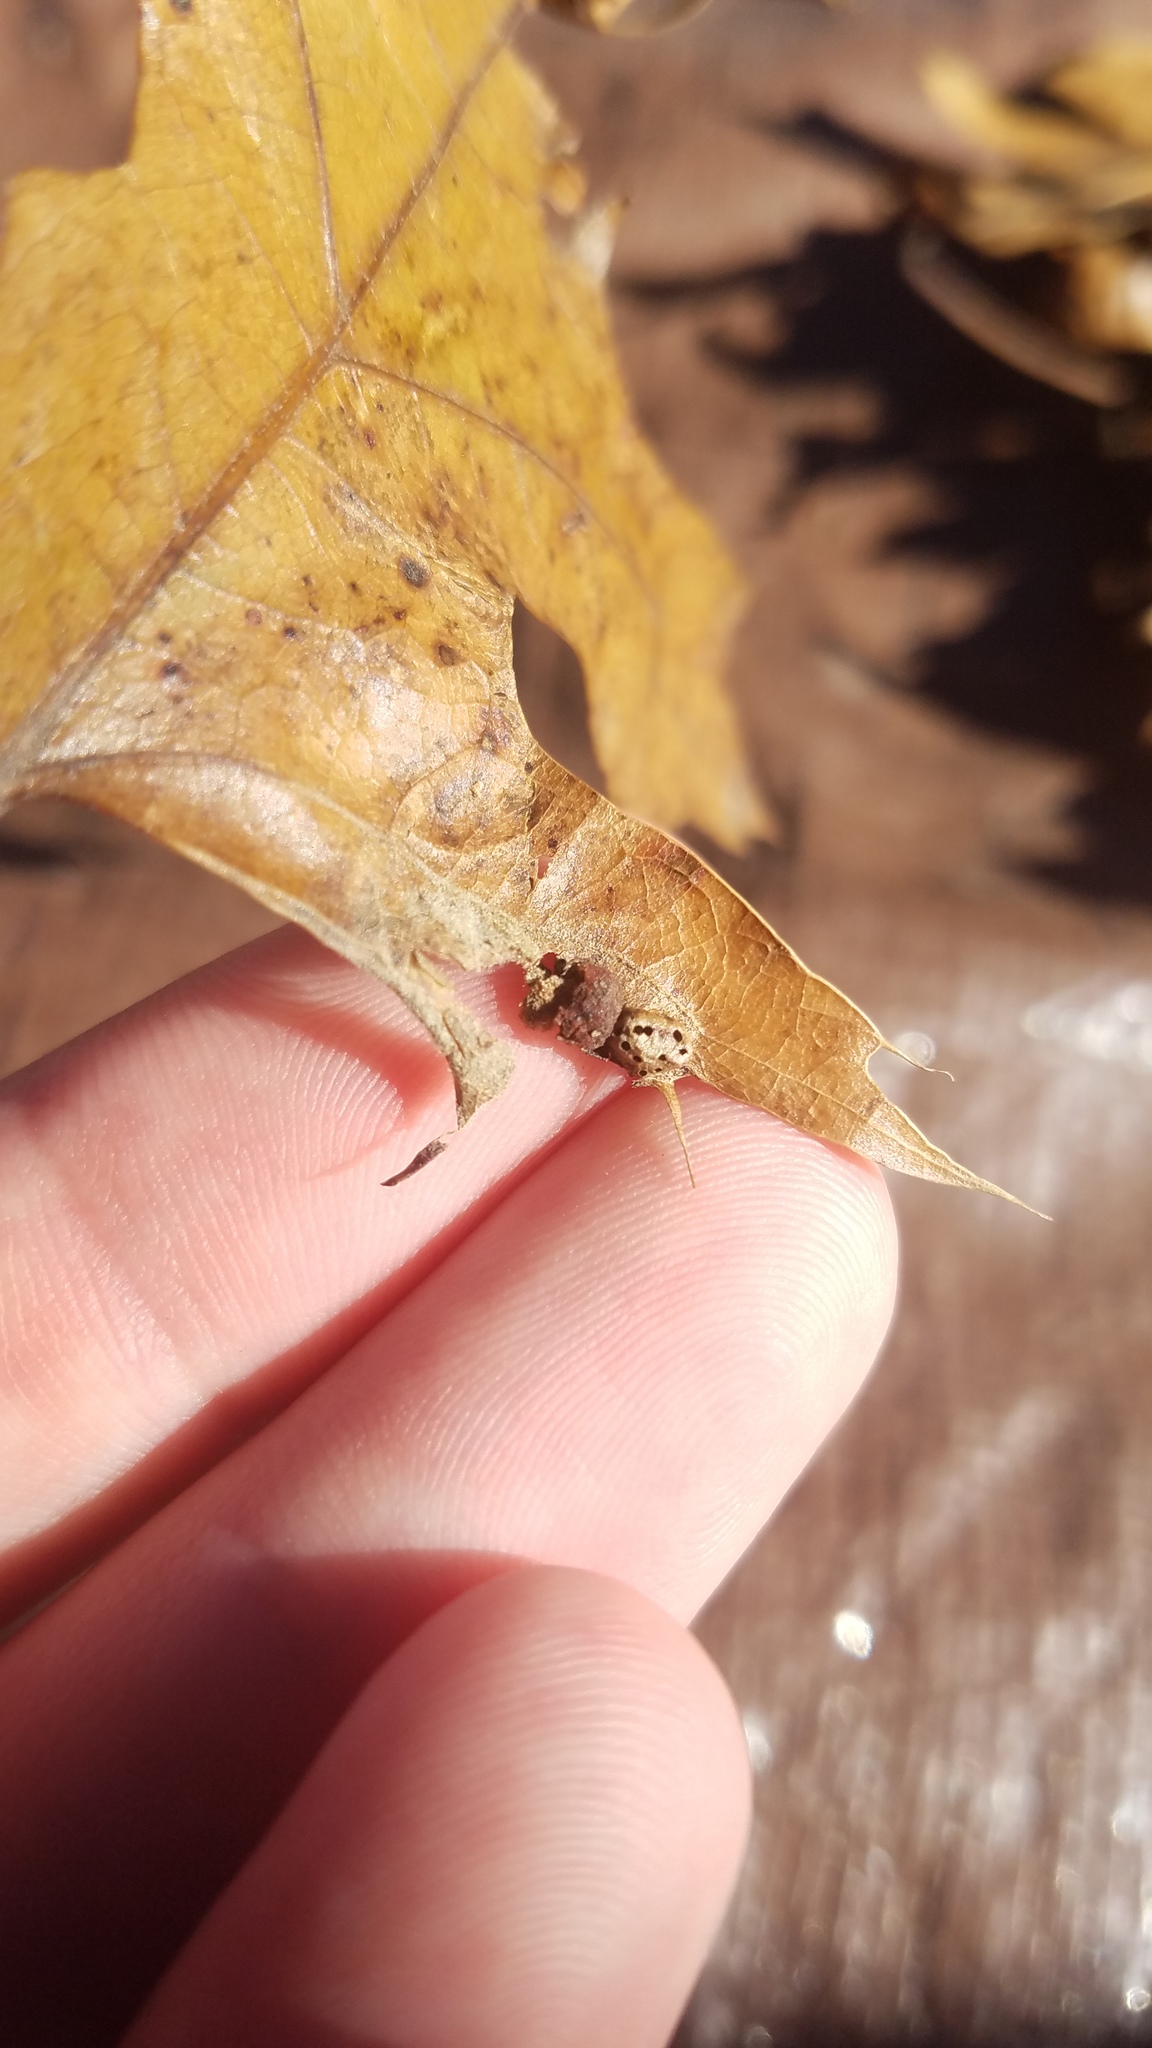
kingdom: Animalia
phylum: Arthropoda
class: Insecta
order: Diptera
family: Cecidomyiidae
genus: Polystepha
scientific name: Polystepha pilulae
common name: Oak leaf gall midge
